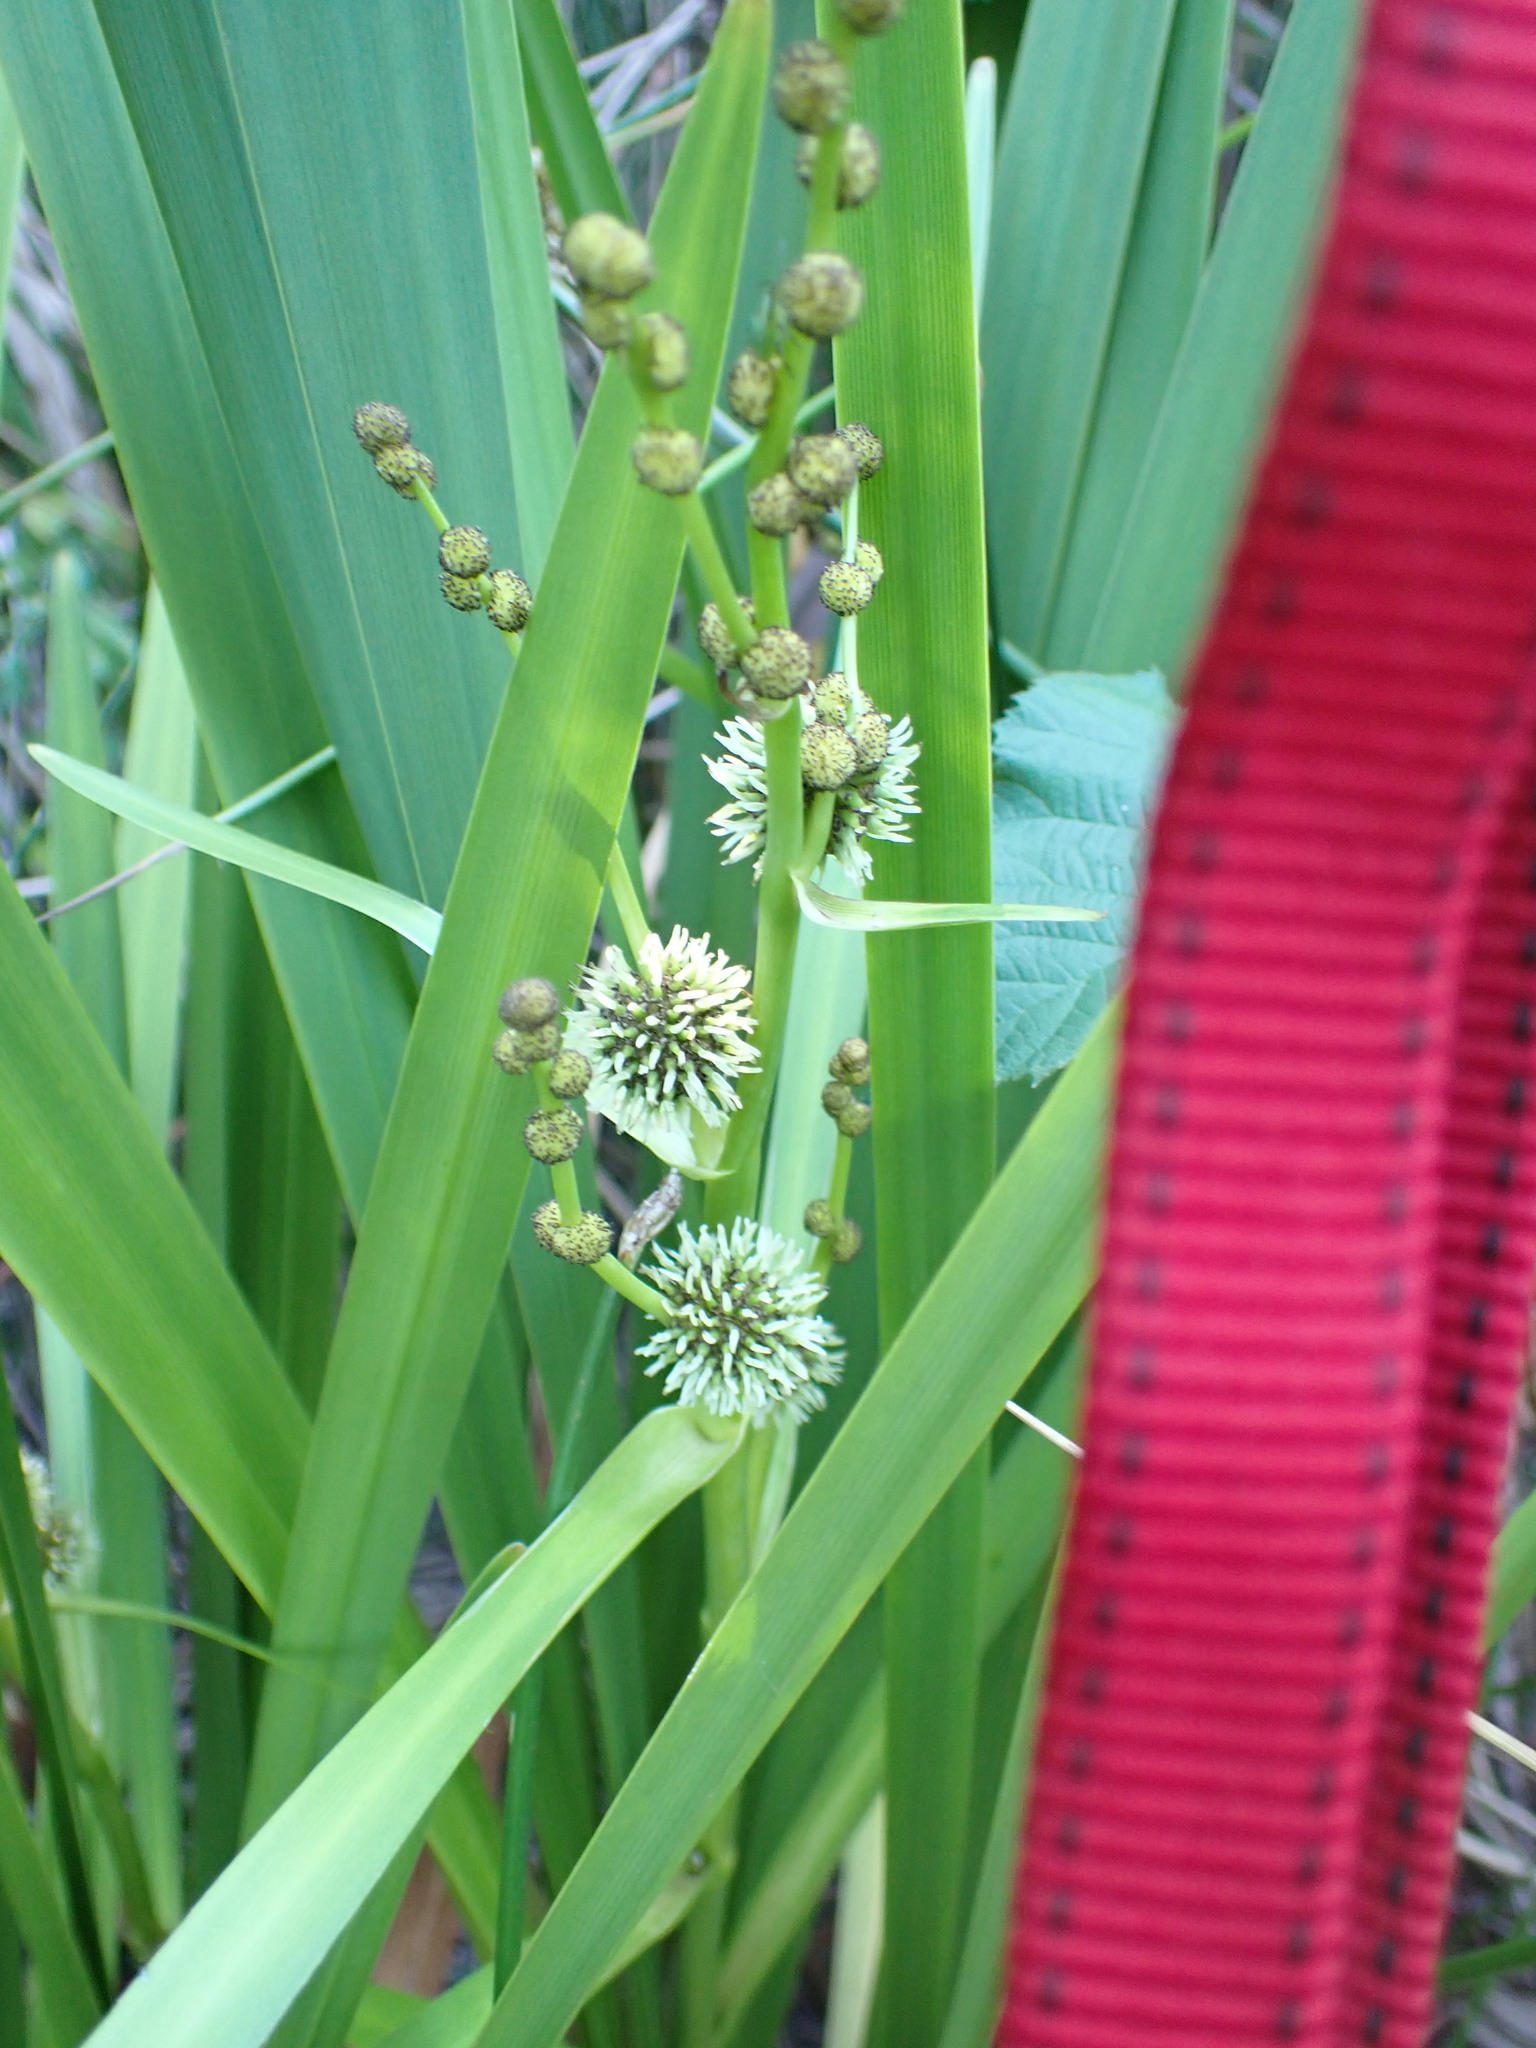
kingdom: Plantae
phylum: Tracheophyta
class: Liliopsida
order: Poales
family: Typhaceae
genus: Sparganium
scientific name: Sparganium erectum
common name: Branched bur-reed
